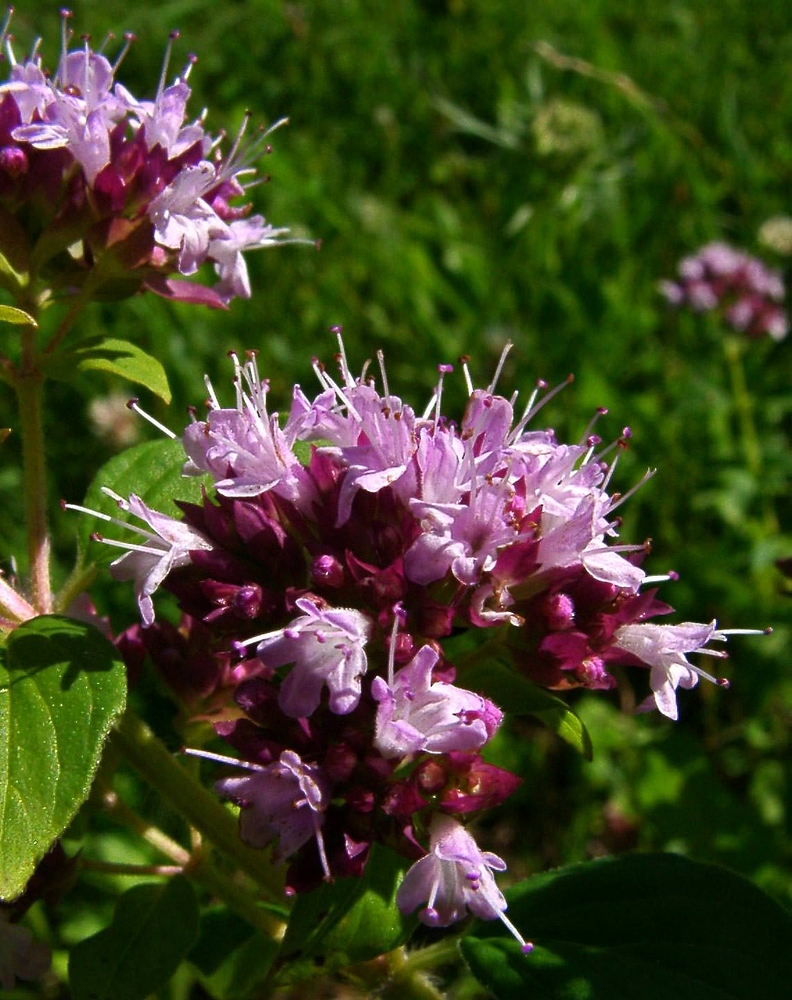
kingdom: Plantae
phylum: Tracheophyta
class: Magnoliopsida
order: Lamiales
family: Lamiaceae
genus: Origanum
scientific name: Origanum vulgare
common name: Wild marjoram
